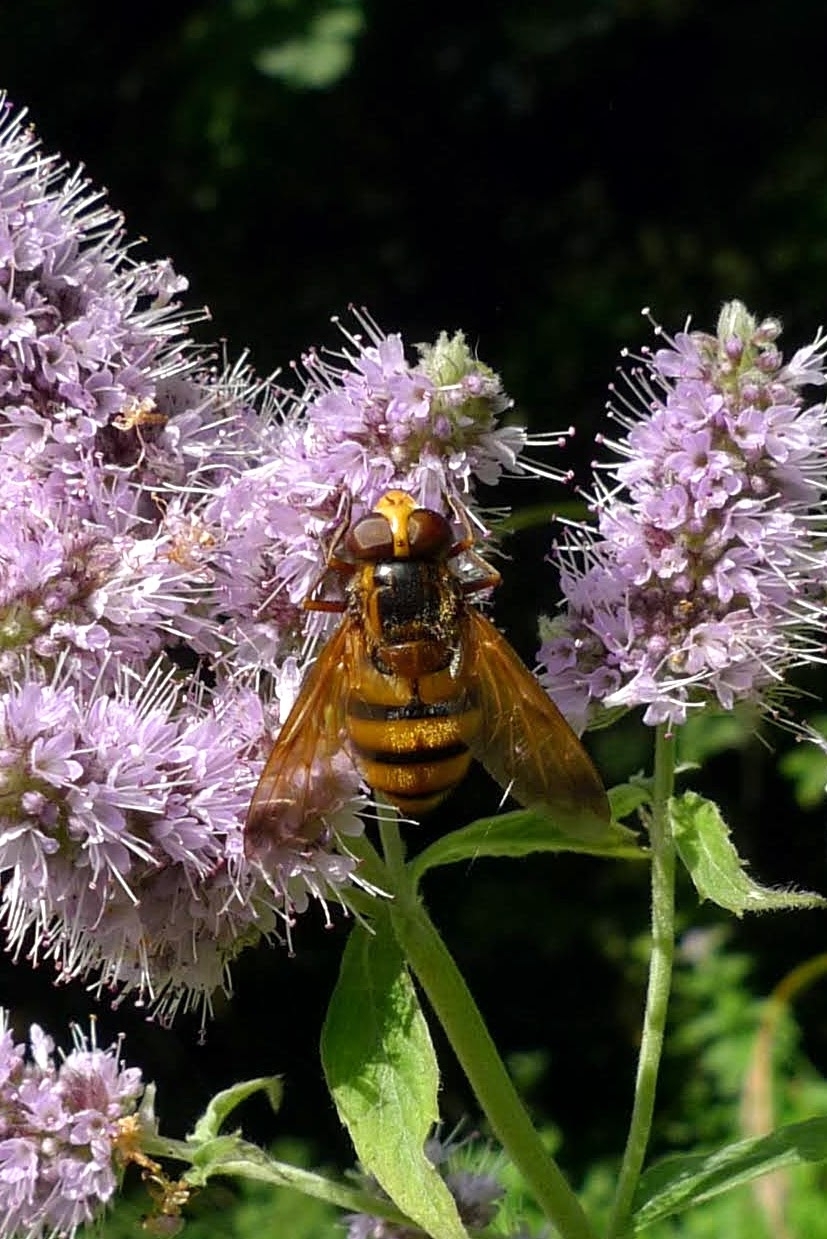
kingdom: Animalia
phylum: Arthropoda
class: Insecta
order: Diptera
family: Syrphidae
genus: Volucella
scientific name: Volucella inanis
